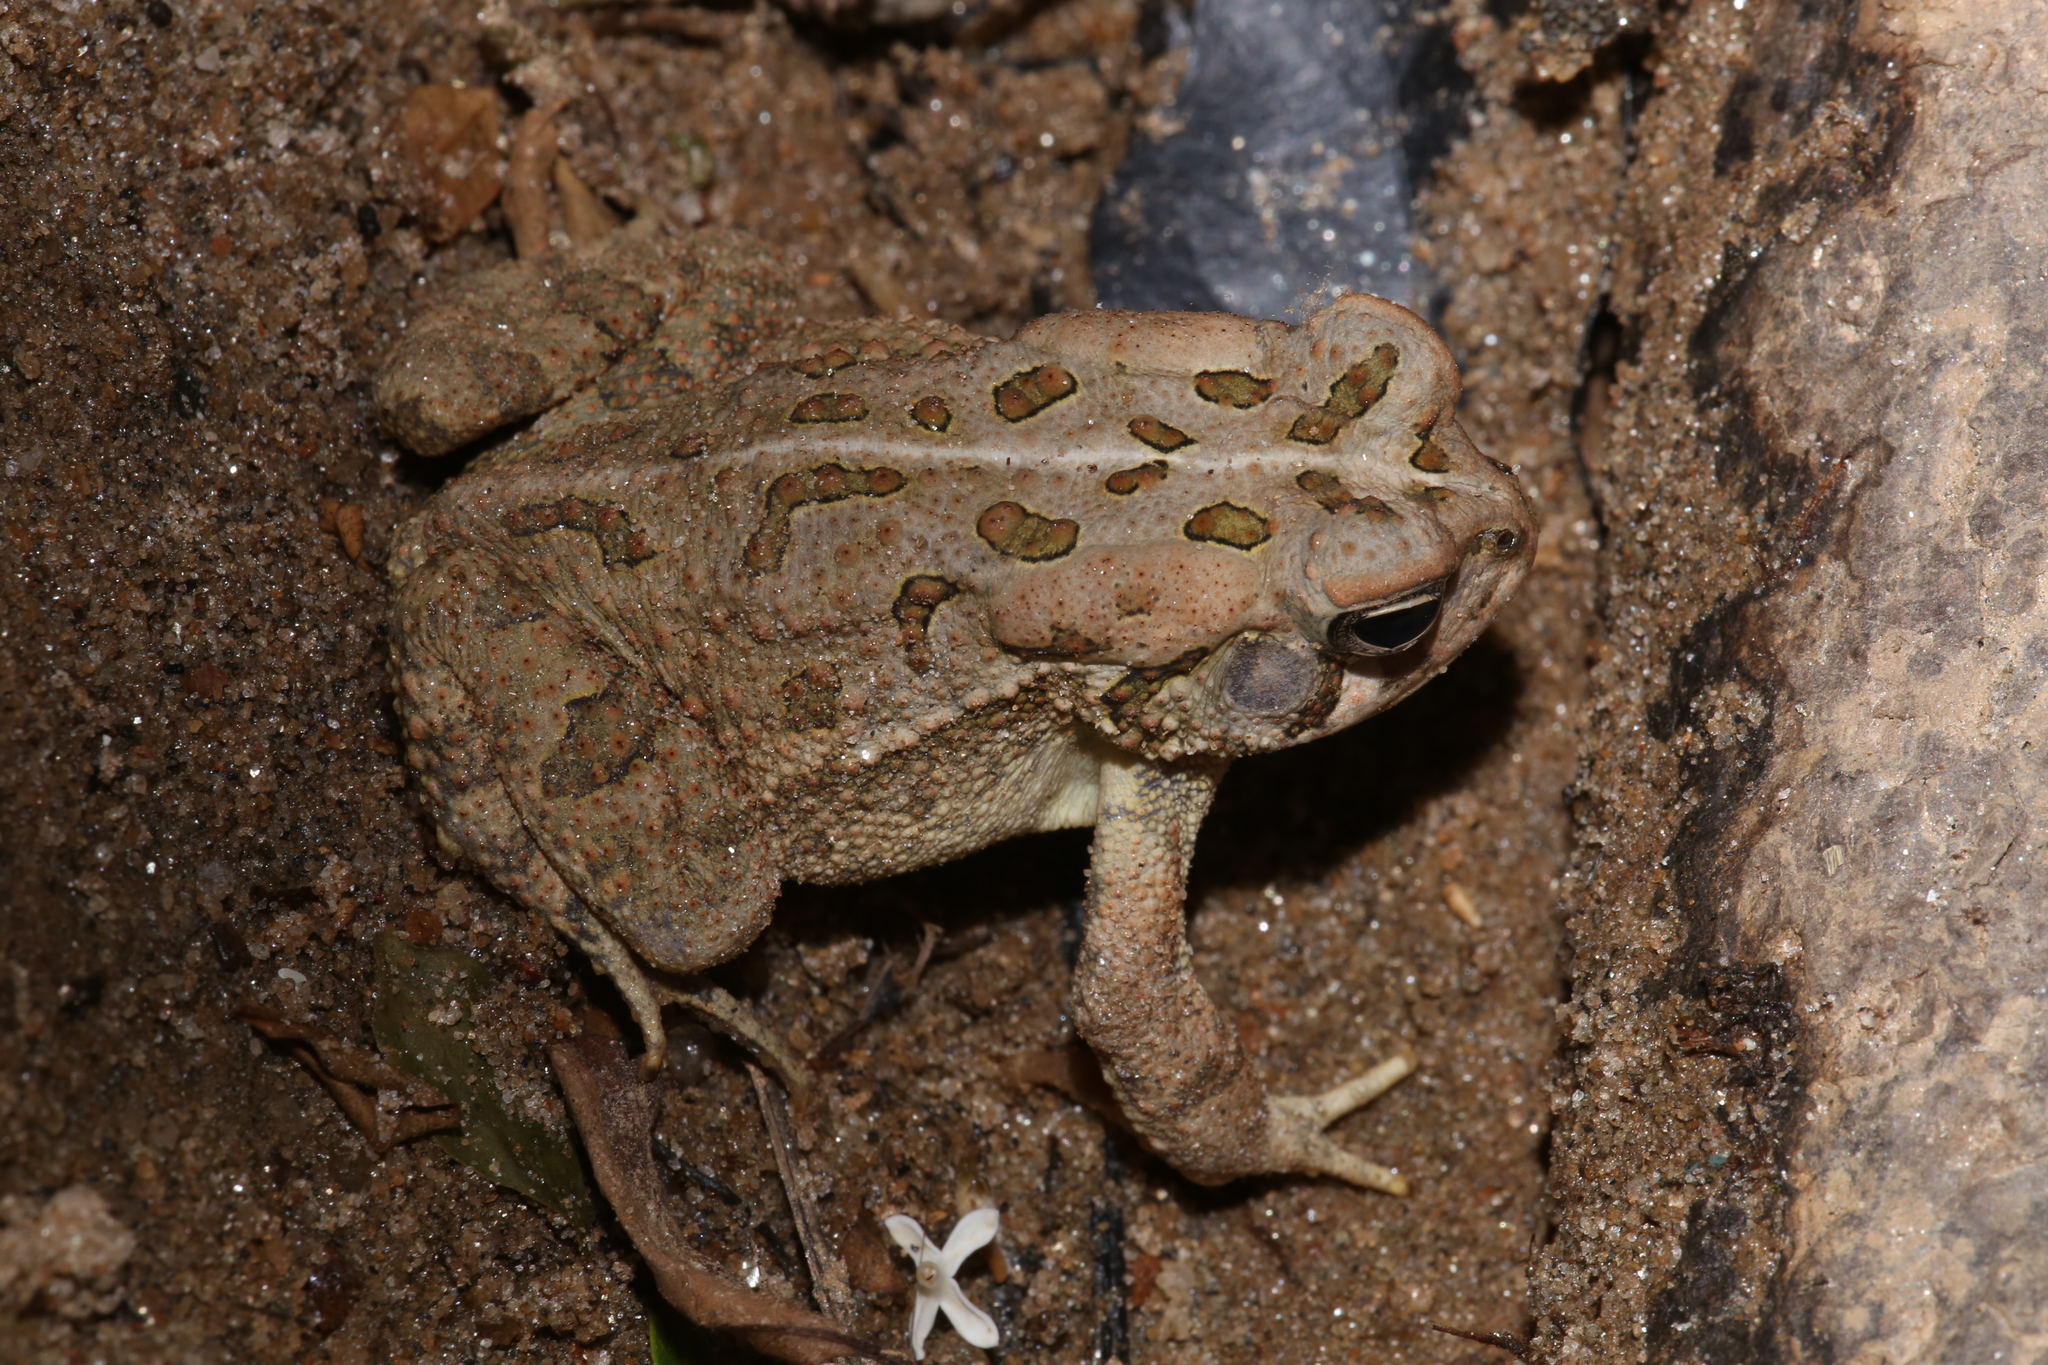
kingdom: Animalia
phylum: Chordata
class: Amphibia
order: Anura
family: Bufonidae
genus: Anaxyrus
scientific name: Anaxyrus fowleri
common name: Fowler's toad
